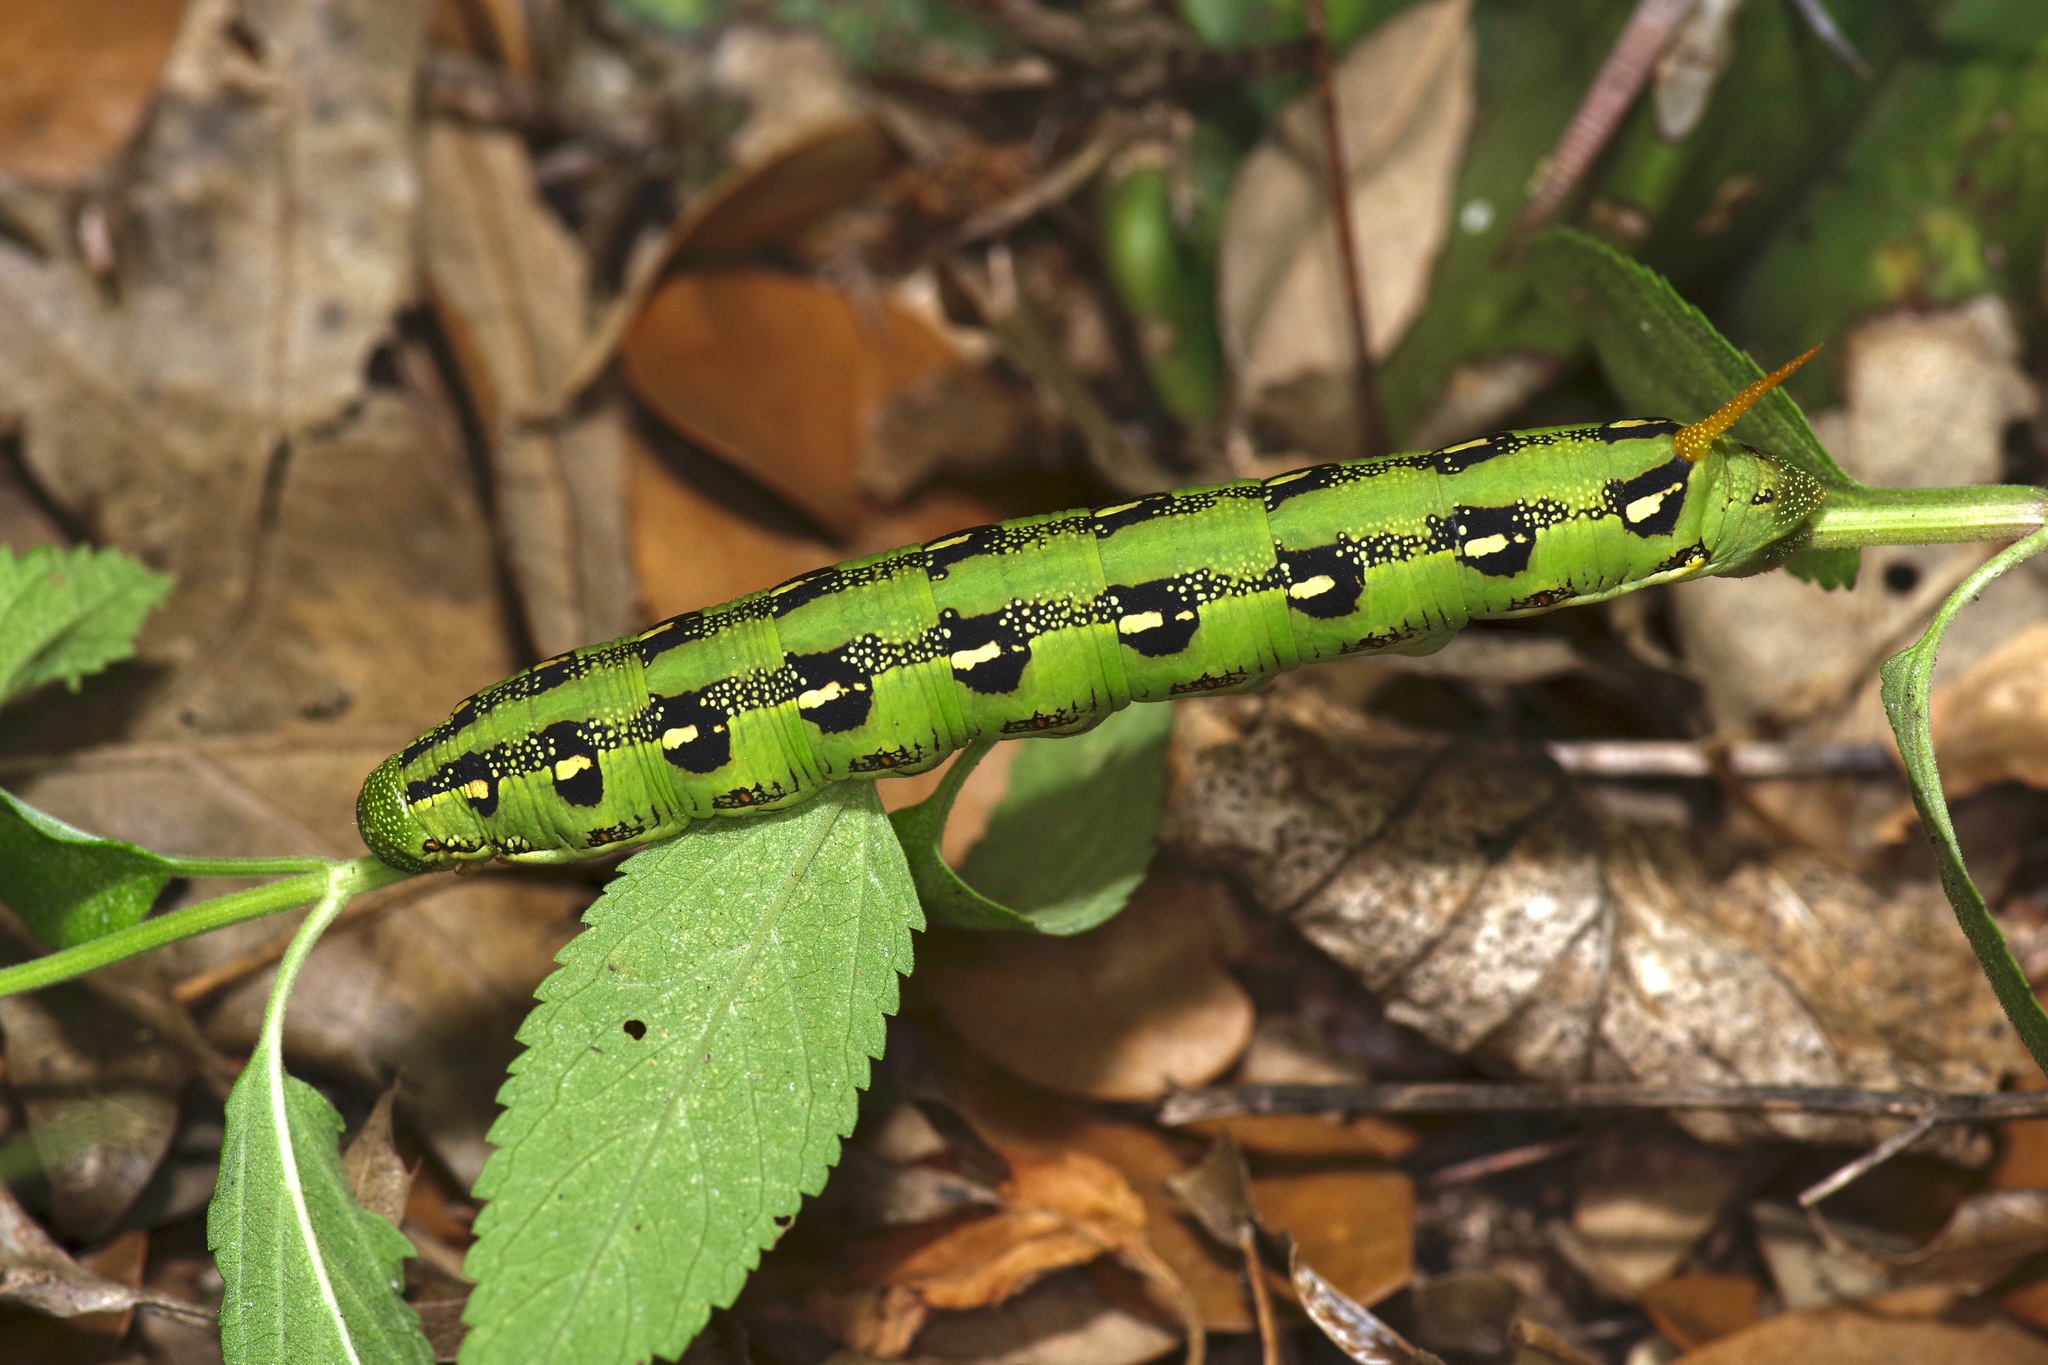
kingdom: Animalia
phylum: Arthropoda
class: Insecta
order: Lepidoptera
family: Sphingidae
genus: Hyles
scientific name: Hyles lineata
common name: White-lined sphinx
